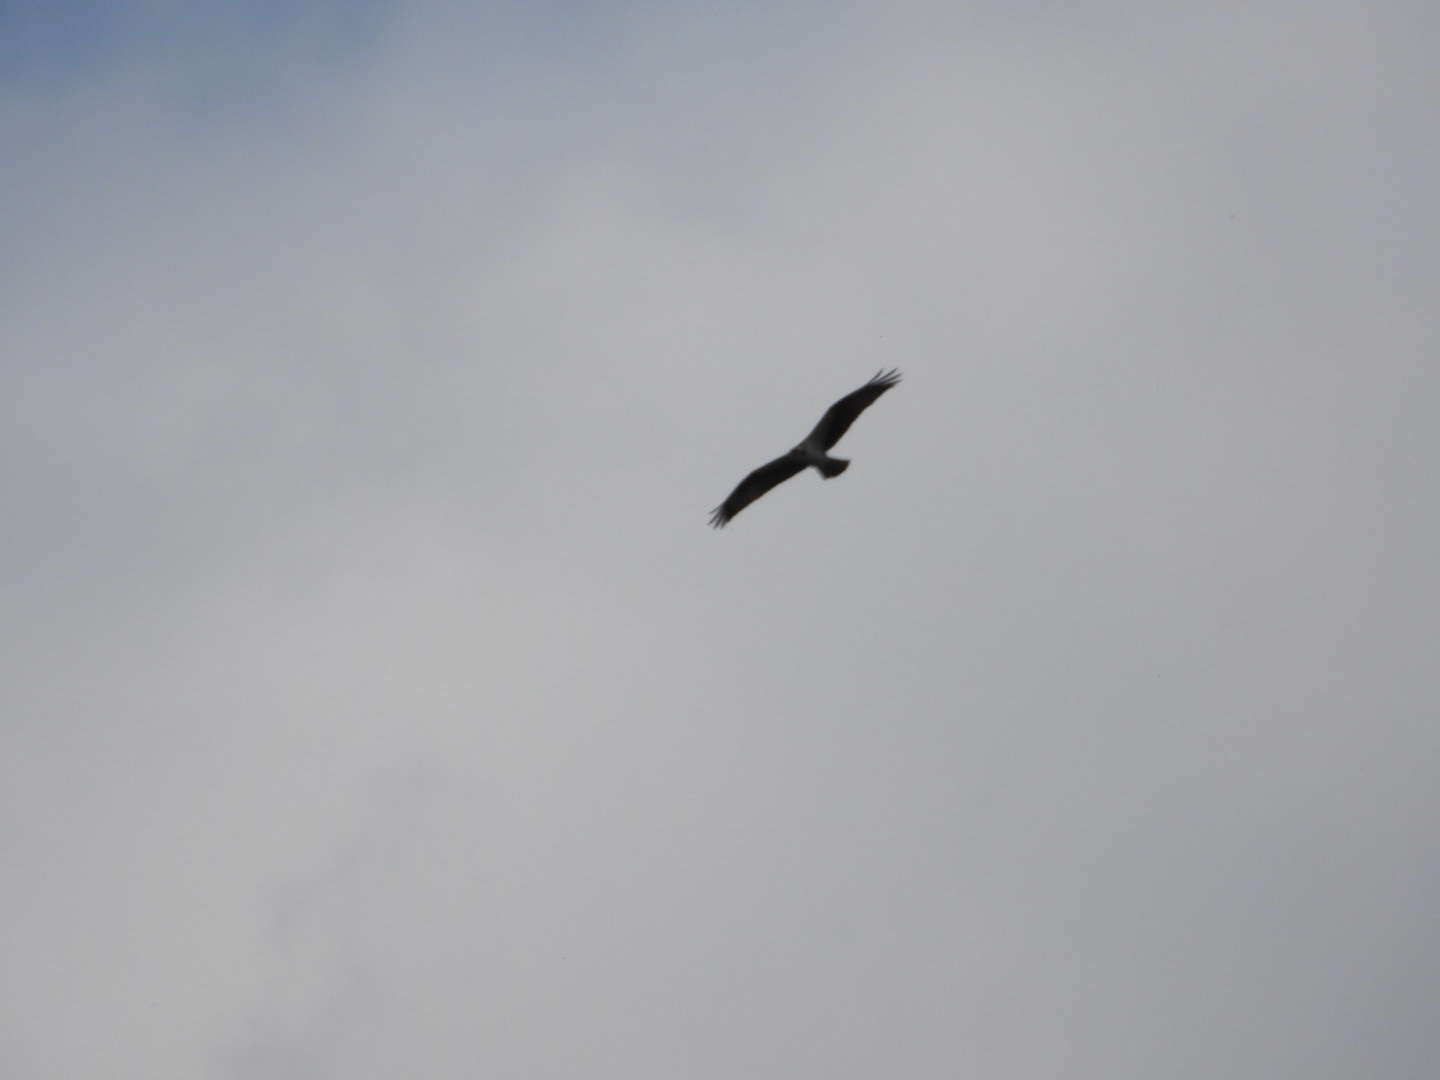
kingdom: Animalia
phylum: Chordata
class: Aves
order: Accipitriformes
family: Pandionidae
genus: Pandion
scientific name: Pandion haliaetus
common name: Osprey
